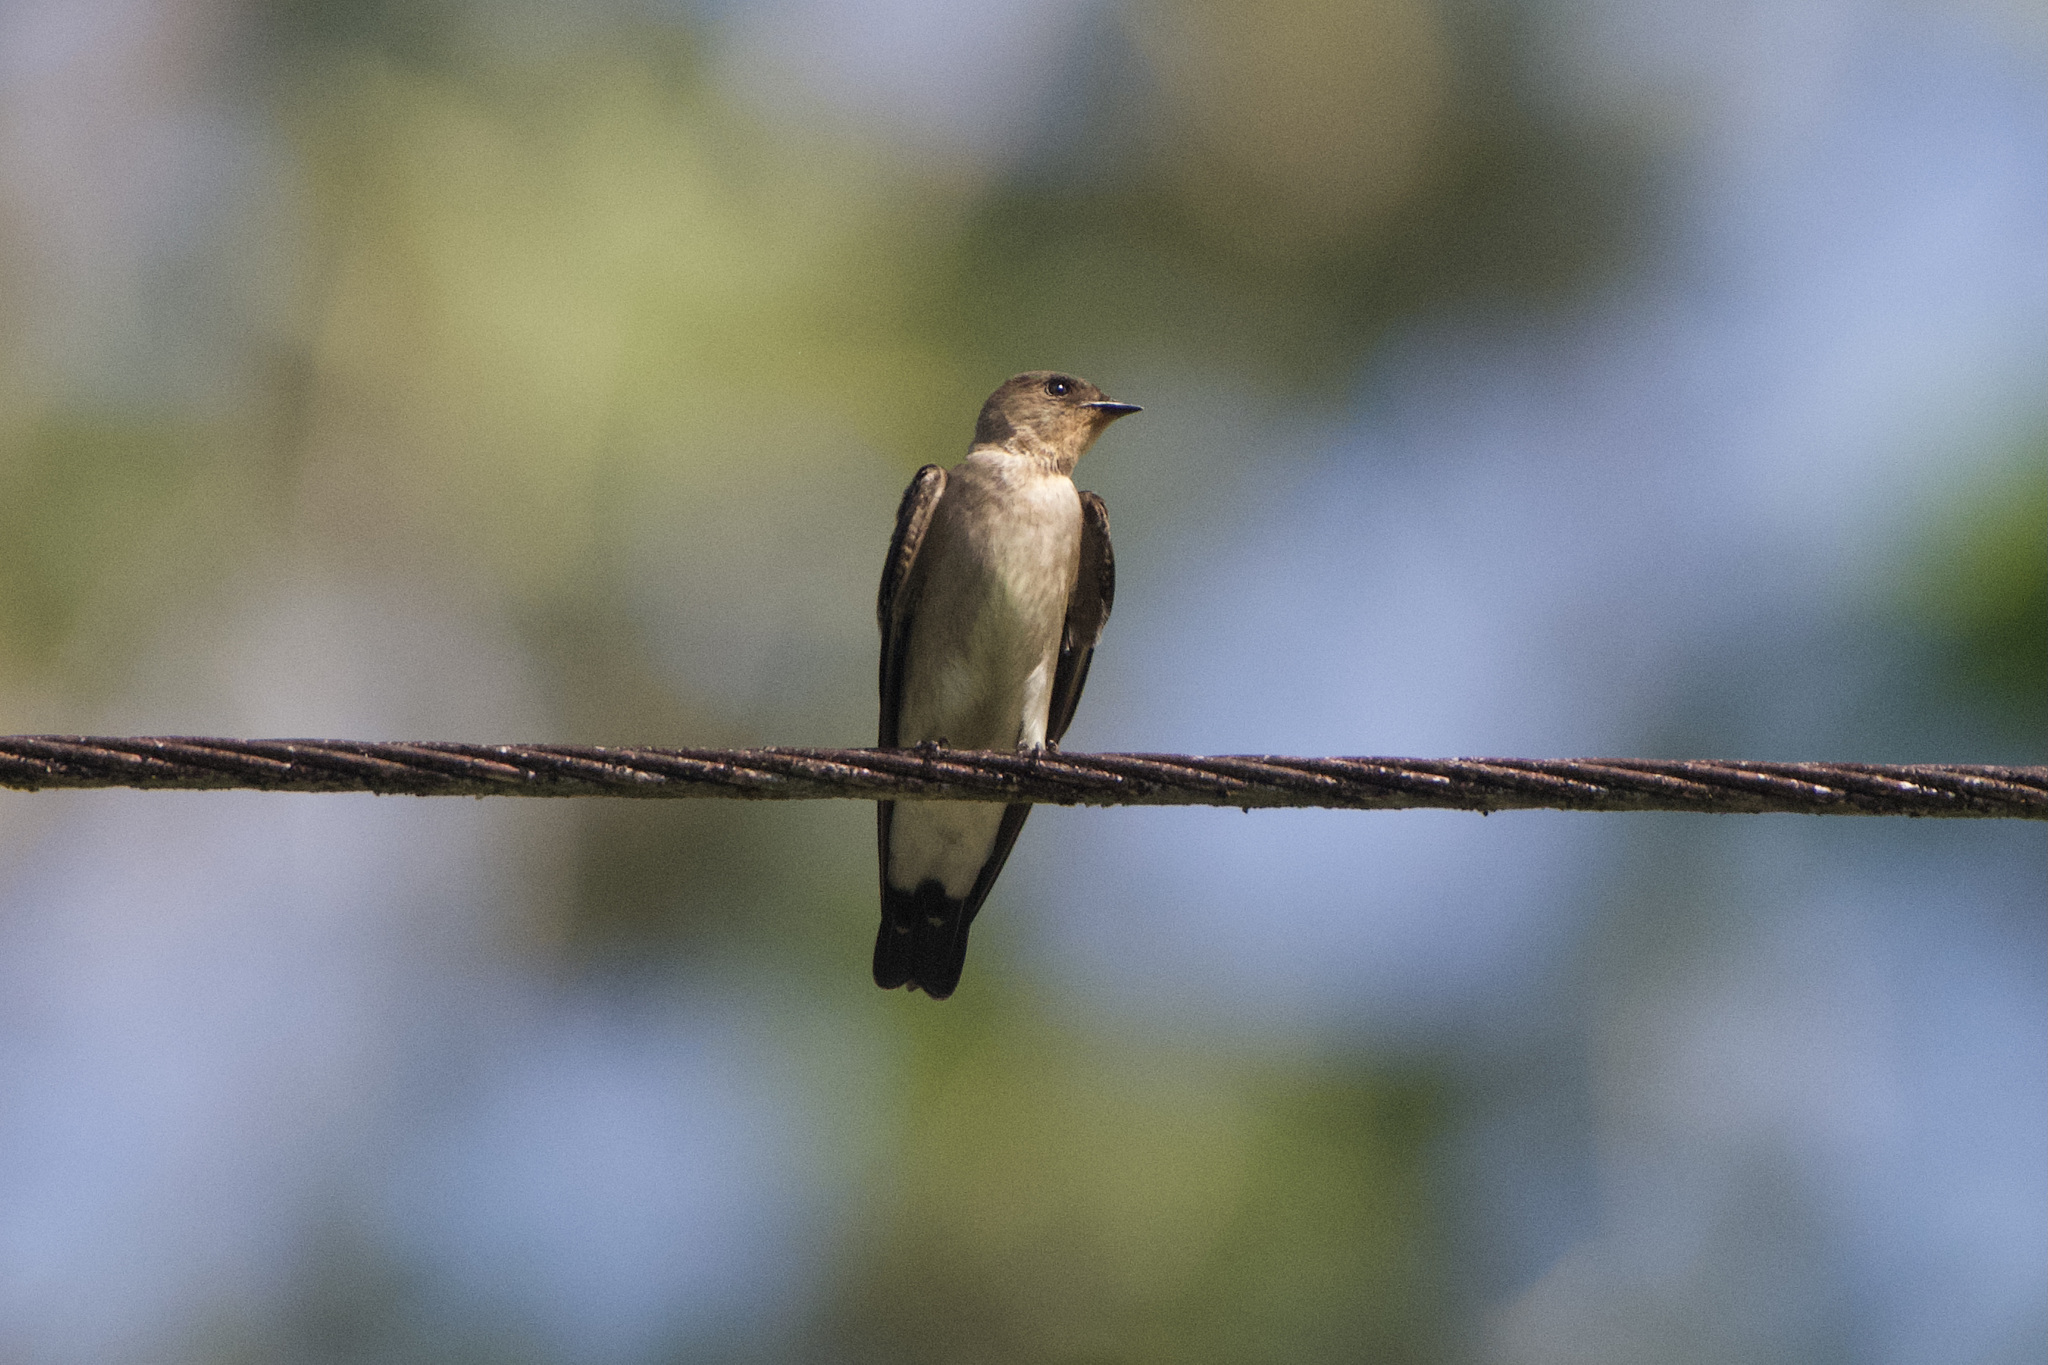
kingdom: Animalia
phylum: Chordata
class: Aves
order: Passeriformes
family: Hirundinidae
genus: Stelgidopteryx
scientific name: Stelgidopteryx ruficollis
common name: Southern rough-winged swallow
